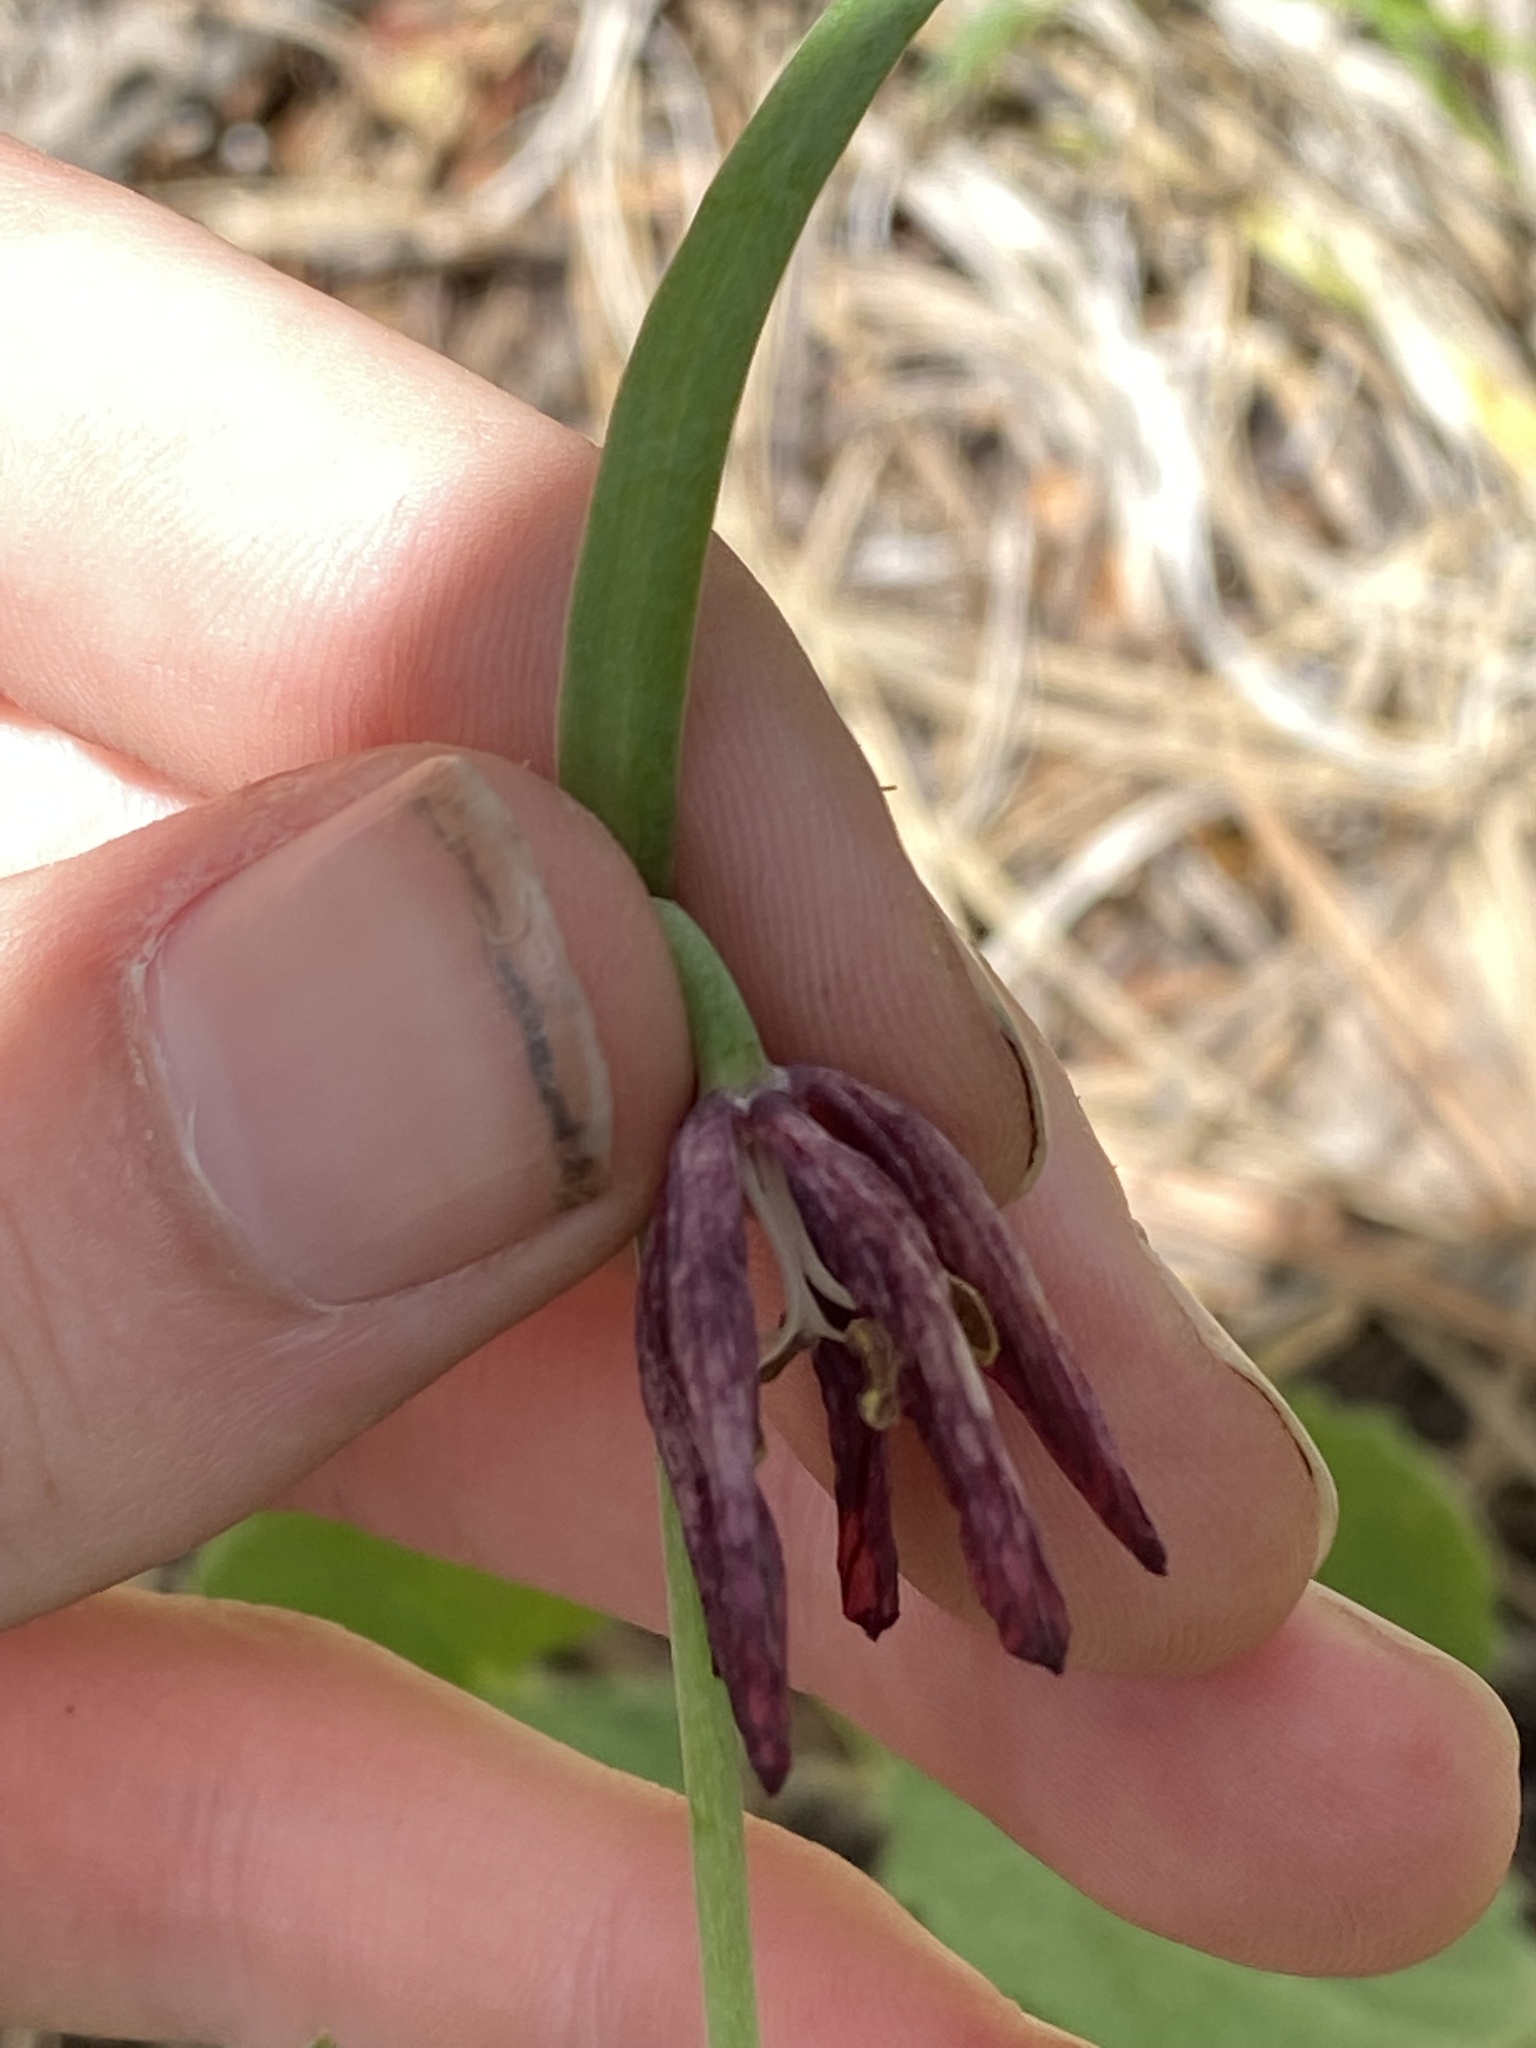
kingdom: Plantae
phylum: Tracheophyta
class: Liliopsida
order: Liliales
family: Liliaceae
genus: Fritillaria
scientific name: Fritillaria atropurpurea
